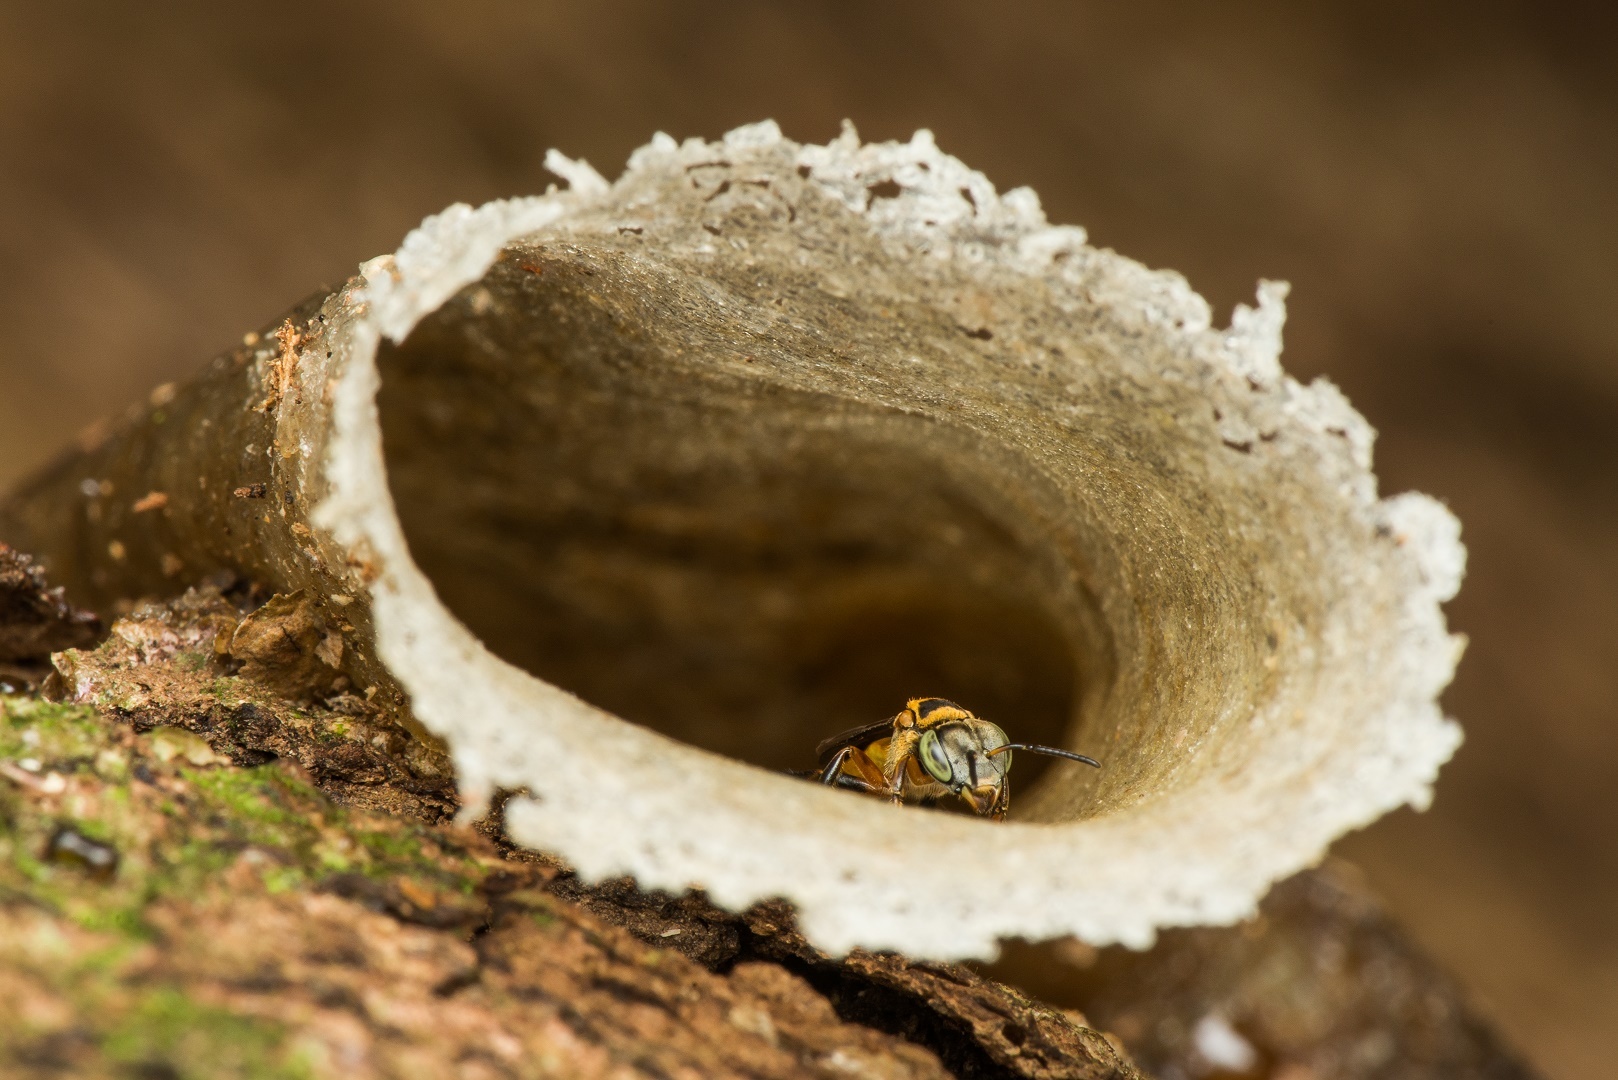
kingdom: Animalia
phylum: Arthropoda
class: Insecta
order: Hymenoptera
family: Apidae
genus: Lepidotrigona
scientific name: Lepidotrigona terminata
